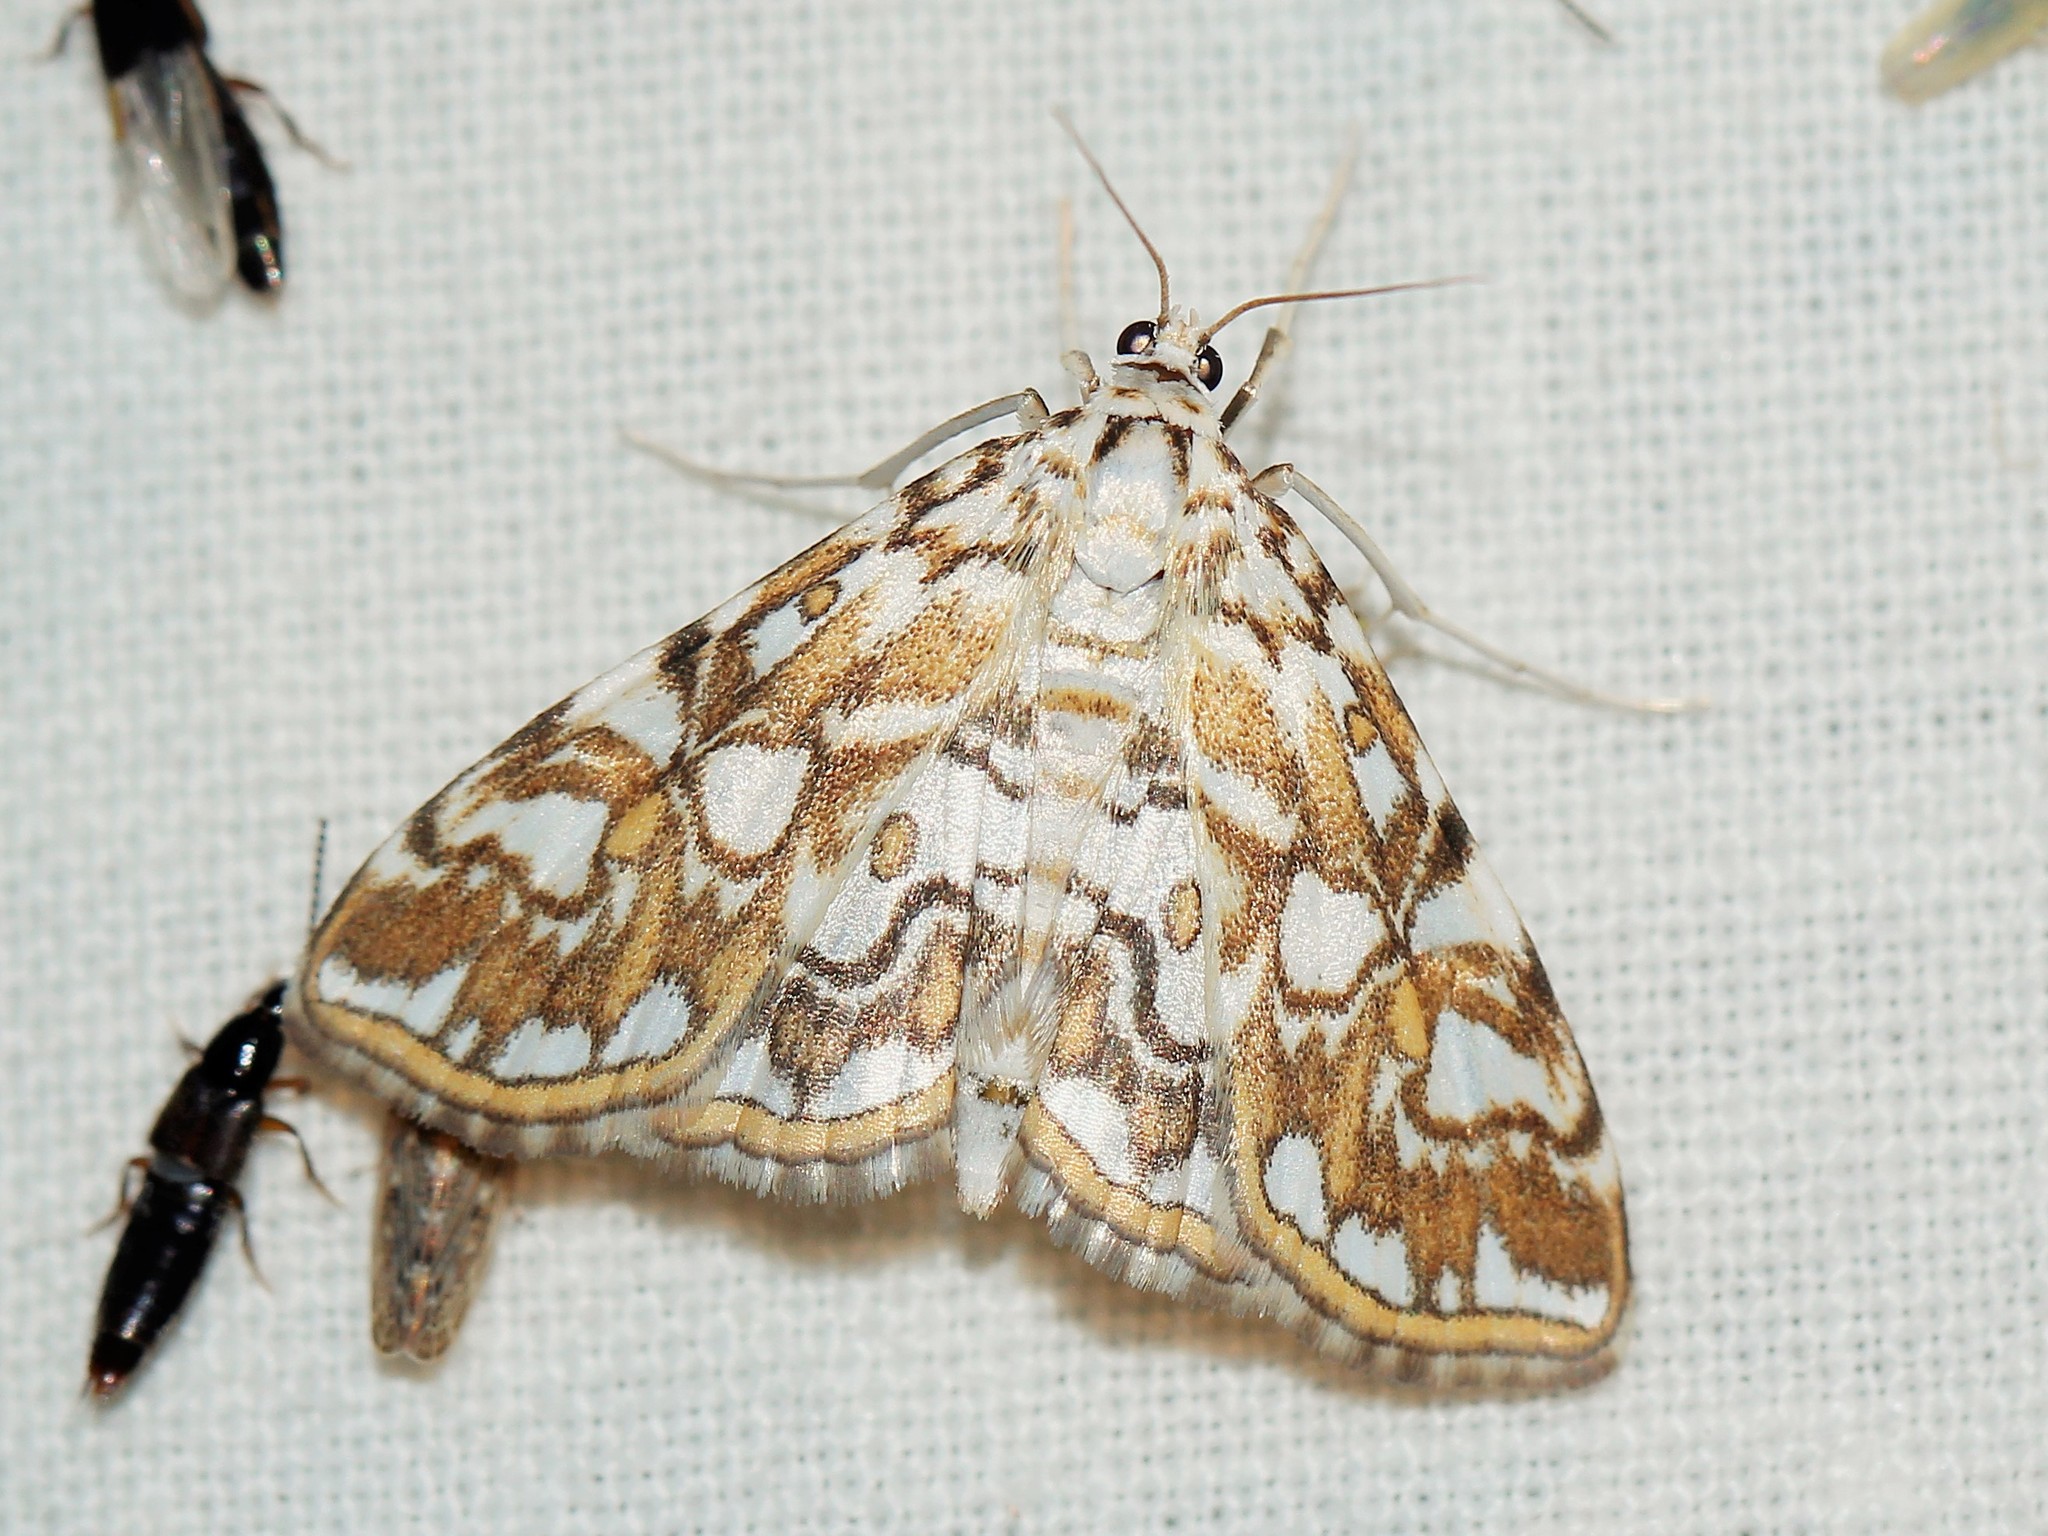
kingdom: Animalia
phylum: Arthropoda
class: Insecta
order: Lepidoptera
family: Crambidae
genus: Elophila
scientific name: Elophila nymphaeata
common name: Brown china-mark
